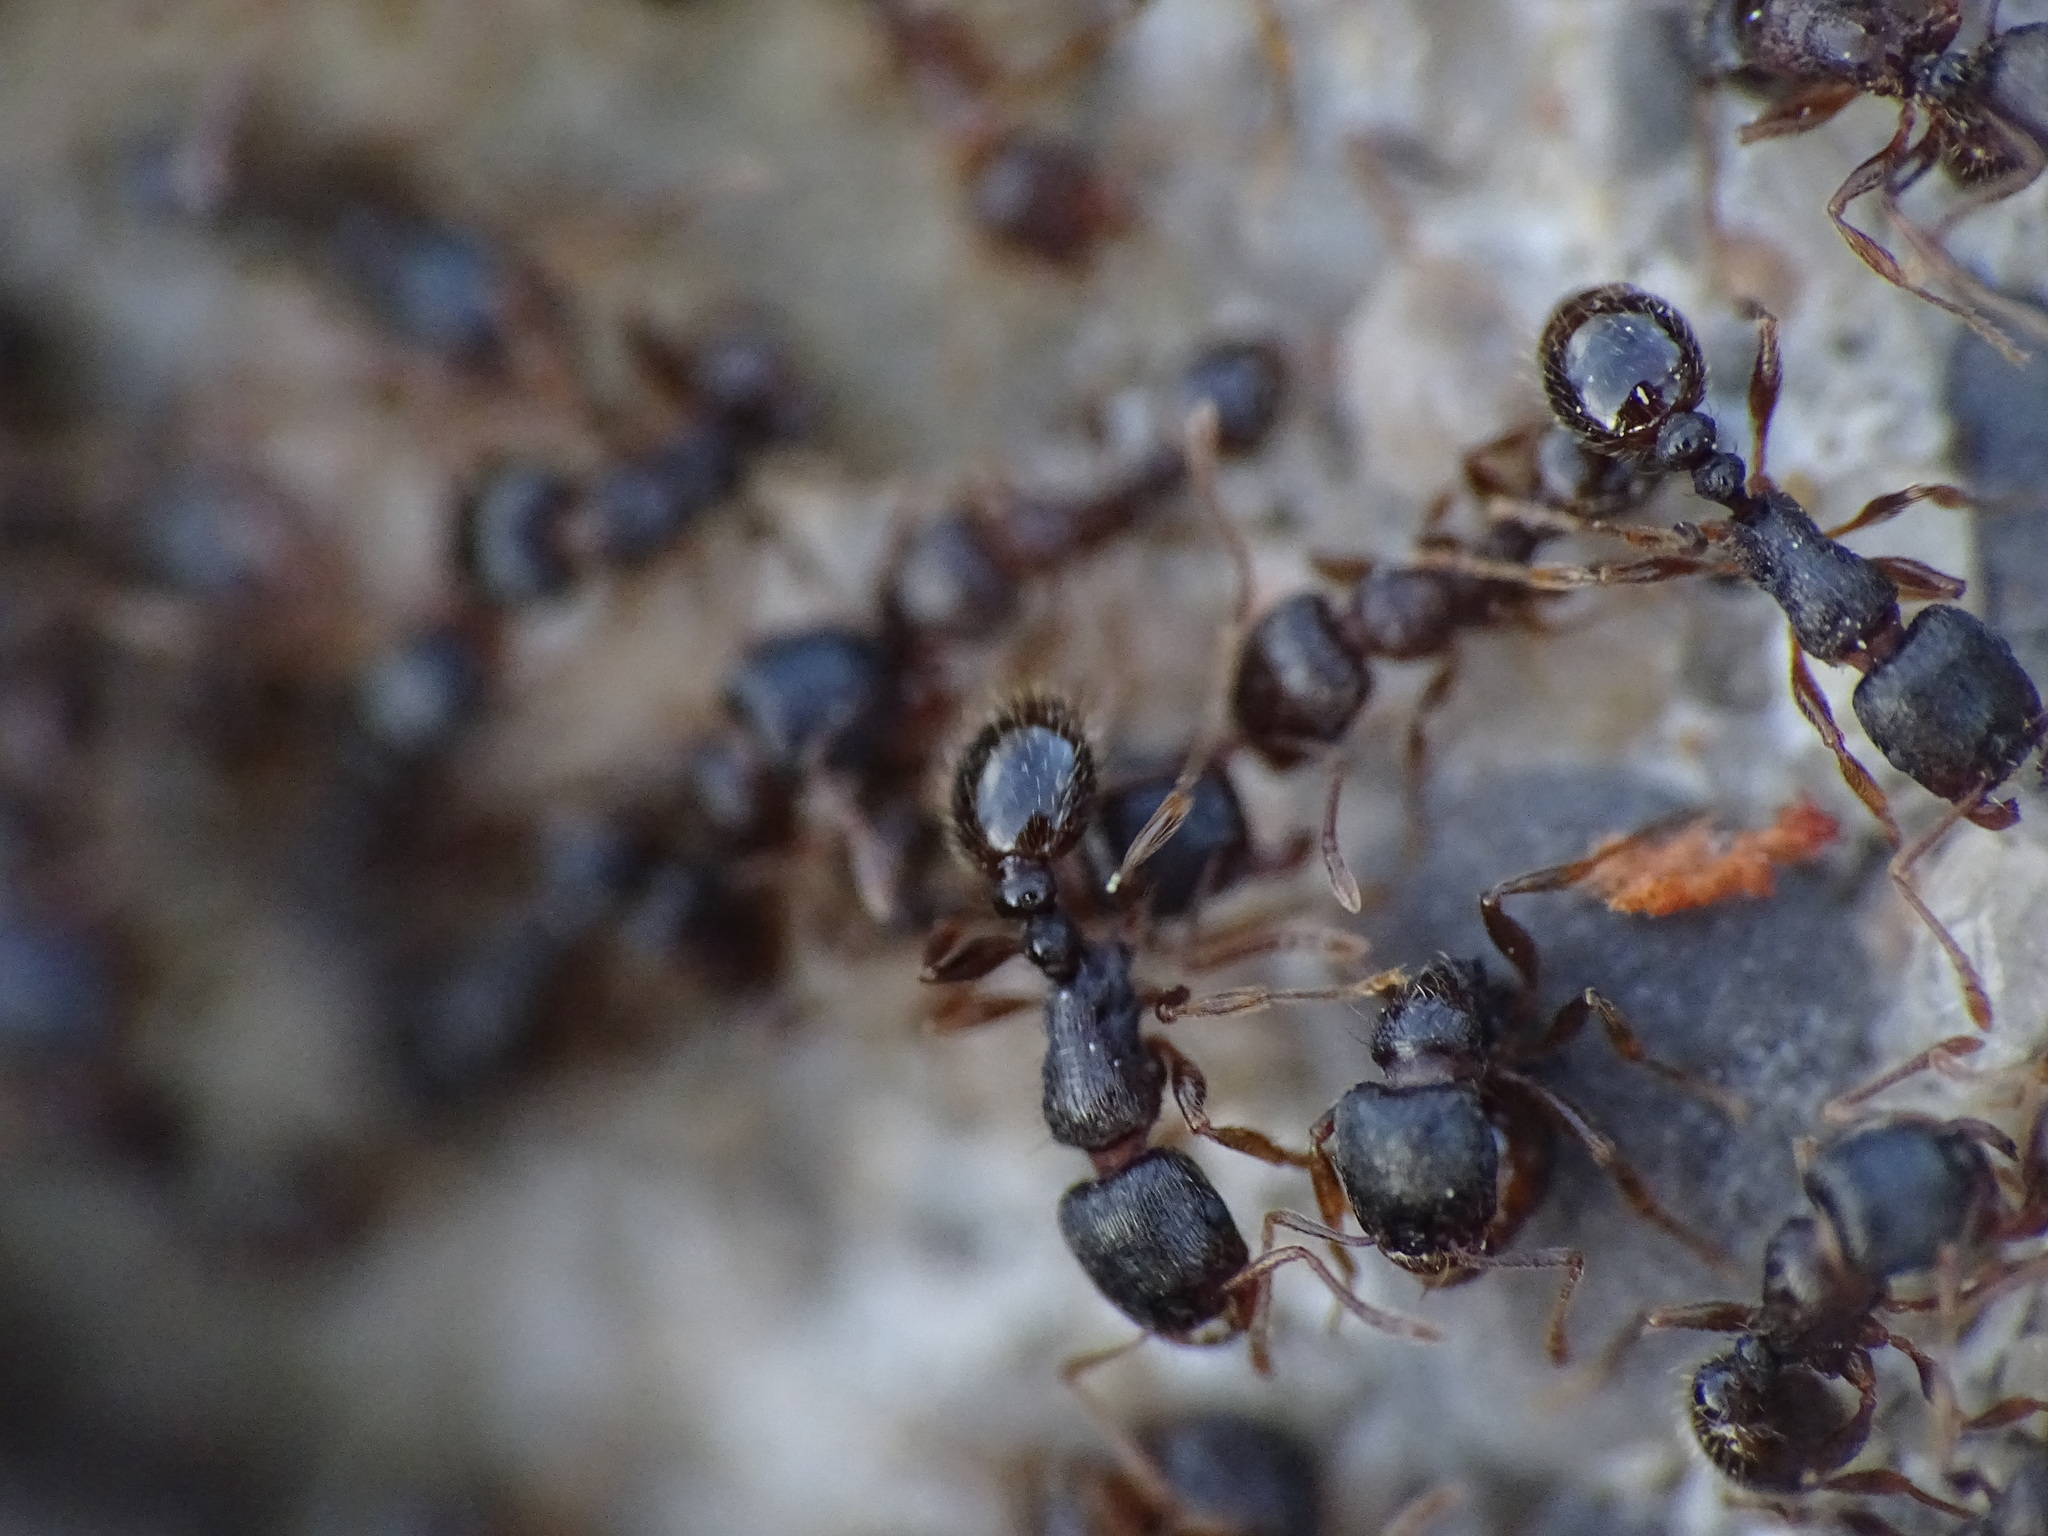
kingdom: Animalia
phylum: Arthropoda
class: Insecta
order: Hymenoptera
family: Formicidae
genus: Tetramorium
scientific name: Tetramorium immigrans
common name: Pavement ant
